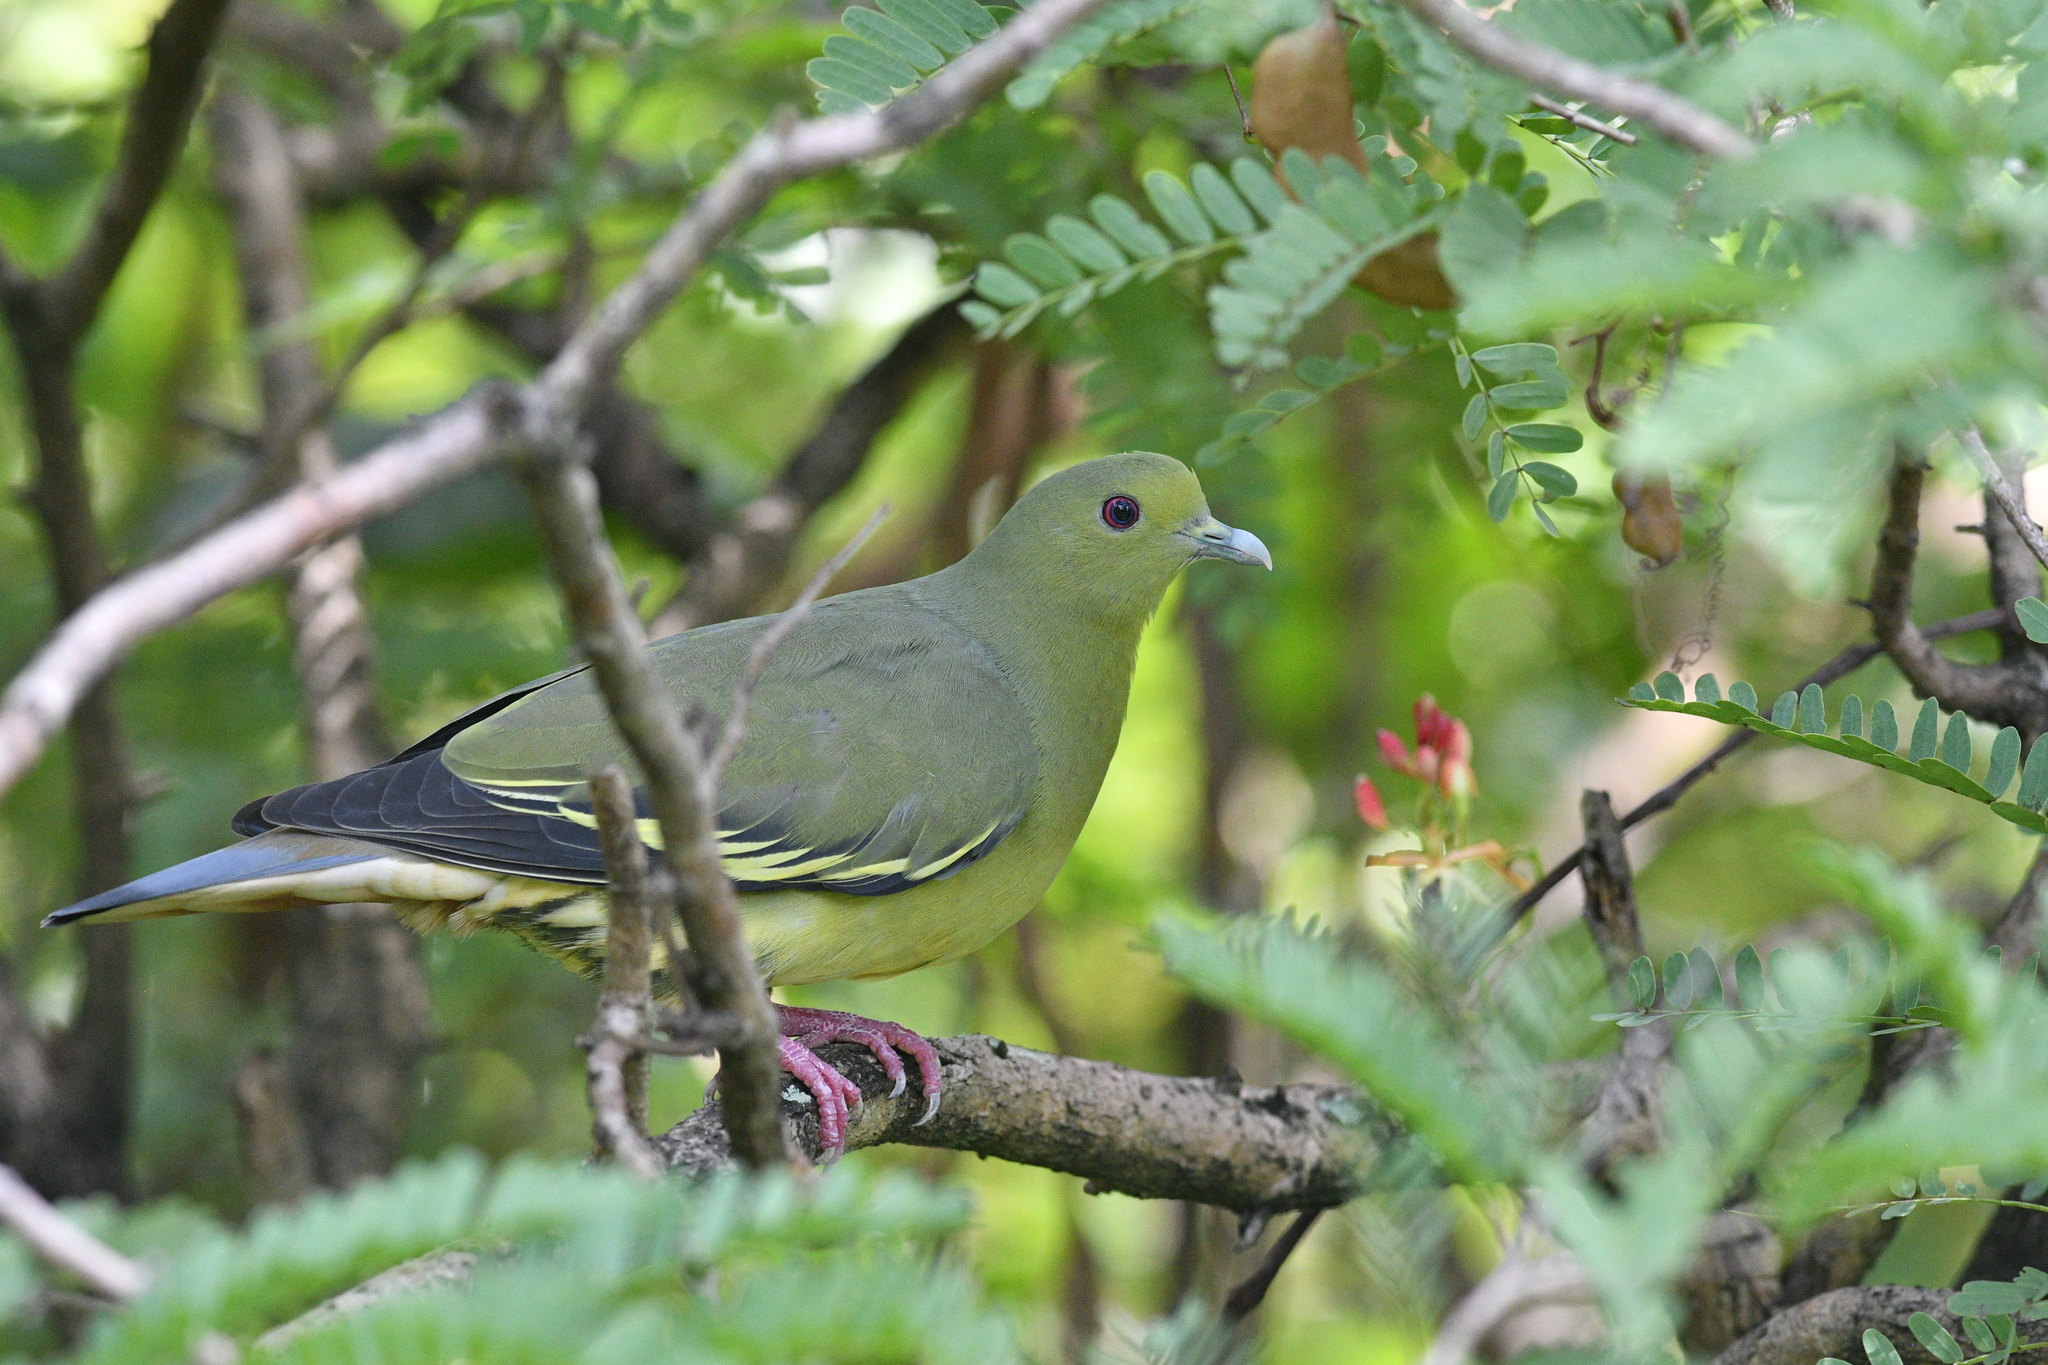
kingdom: Animalia
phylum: Chordata
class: Aves
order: Columbiformes
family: Columbidae
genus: Treron
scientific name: Treron vernans
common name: Pink-necked green pigeon
